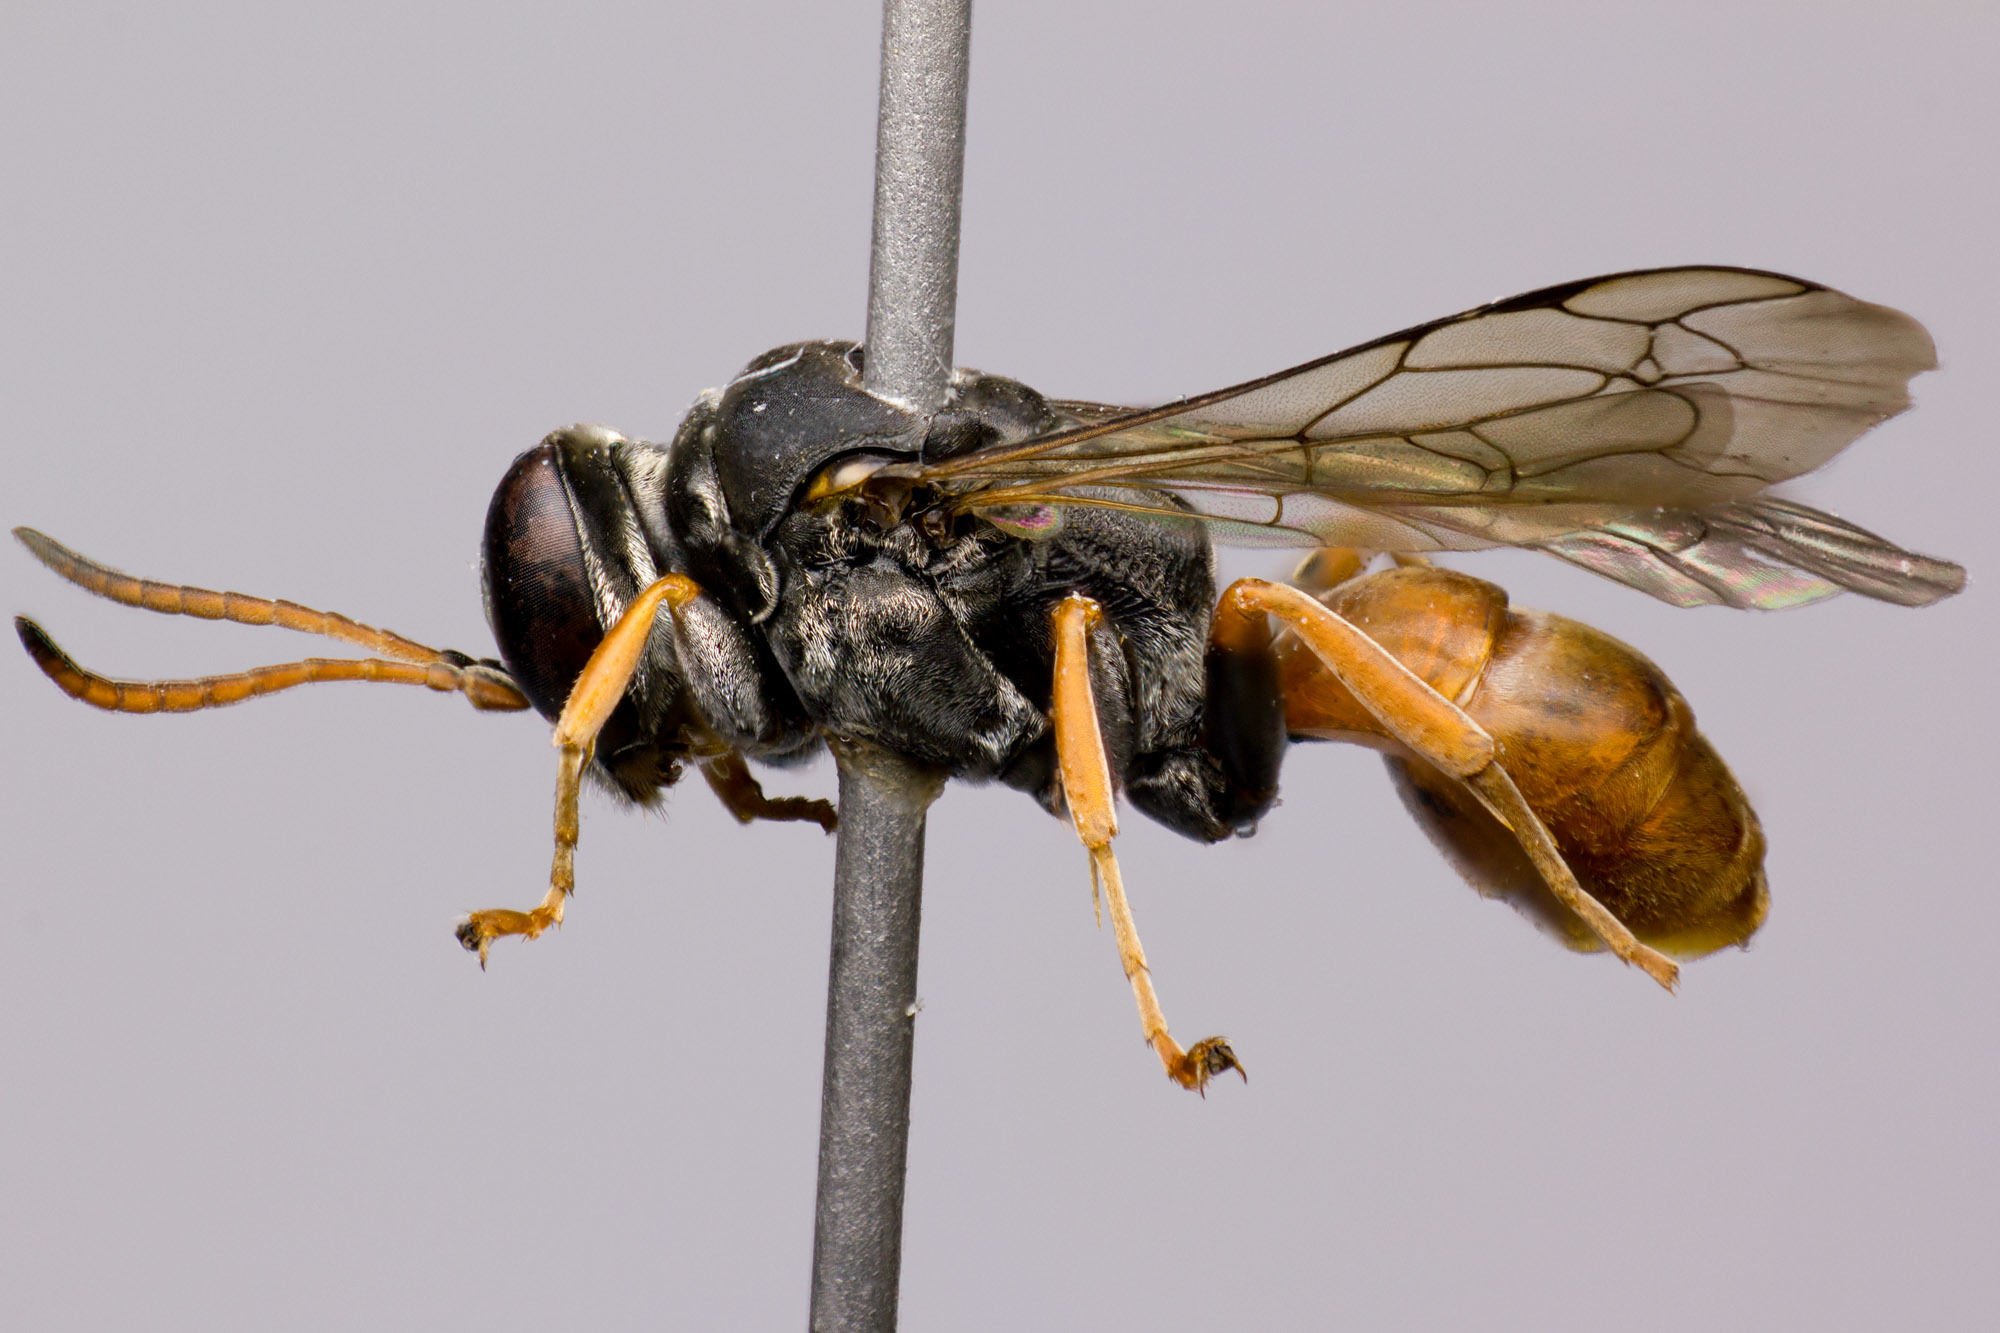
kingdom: Animalia
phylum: Arthropoda
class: Insecta
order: Hymenoptera
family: Crabronidae
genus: Pison
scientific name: Pison peletieri
